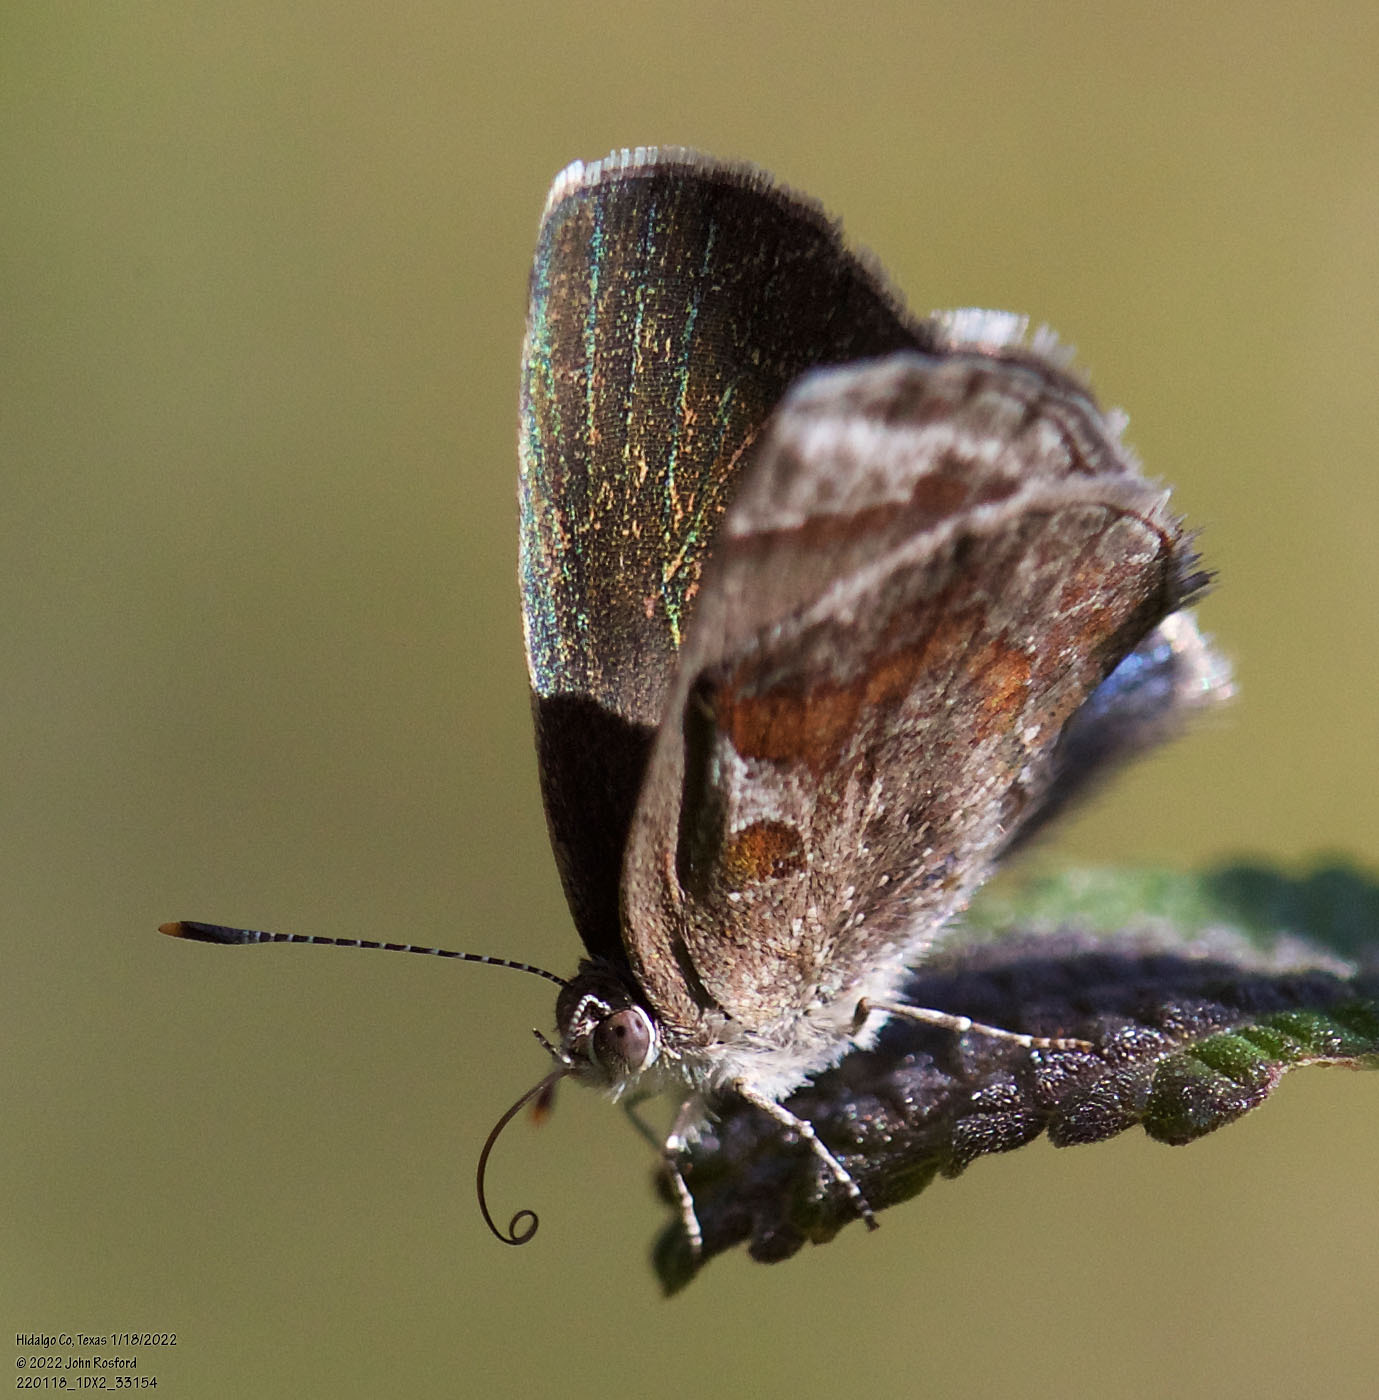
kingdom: Animalia
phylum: Arthropoda
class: Insecta
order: Lepidoptera
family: Lycaenidae
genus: Strymon
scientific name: Strymon bazochii
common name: Lantana scrub-hairstreak
